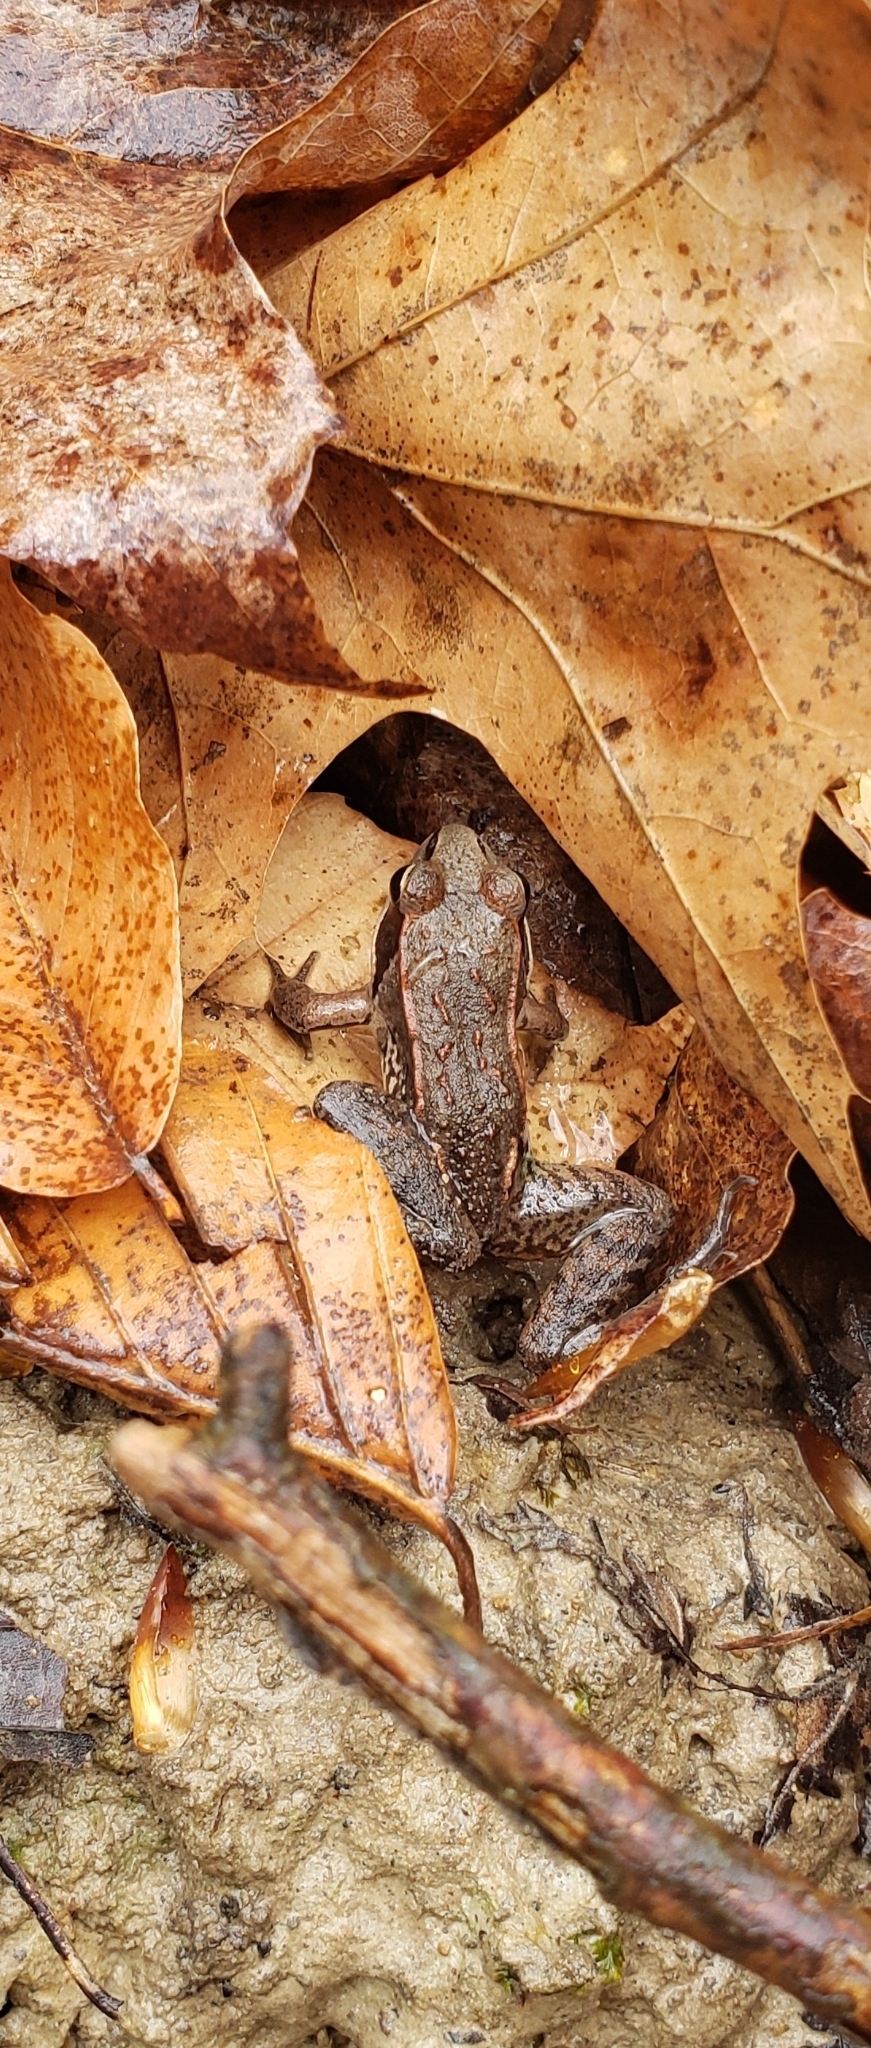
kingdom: Animalia
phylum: Chordata
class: Amphibia
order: Anura
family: Ranidae
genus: Lithobates
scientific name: Lithobates sylvaticus
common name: Wood frog
